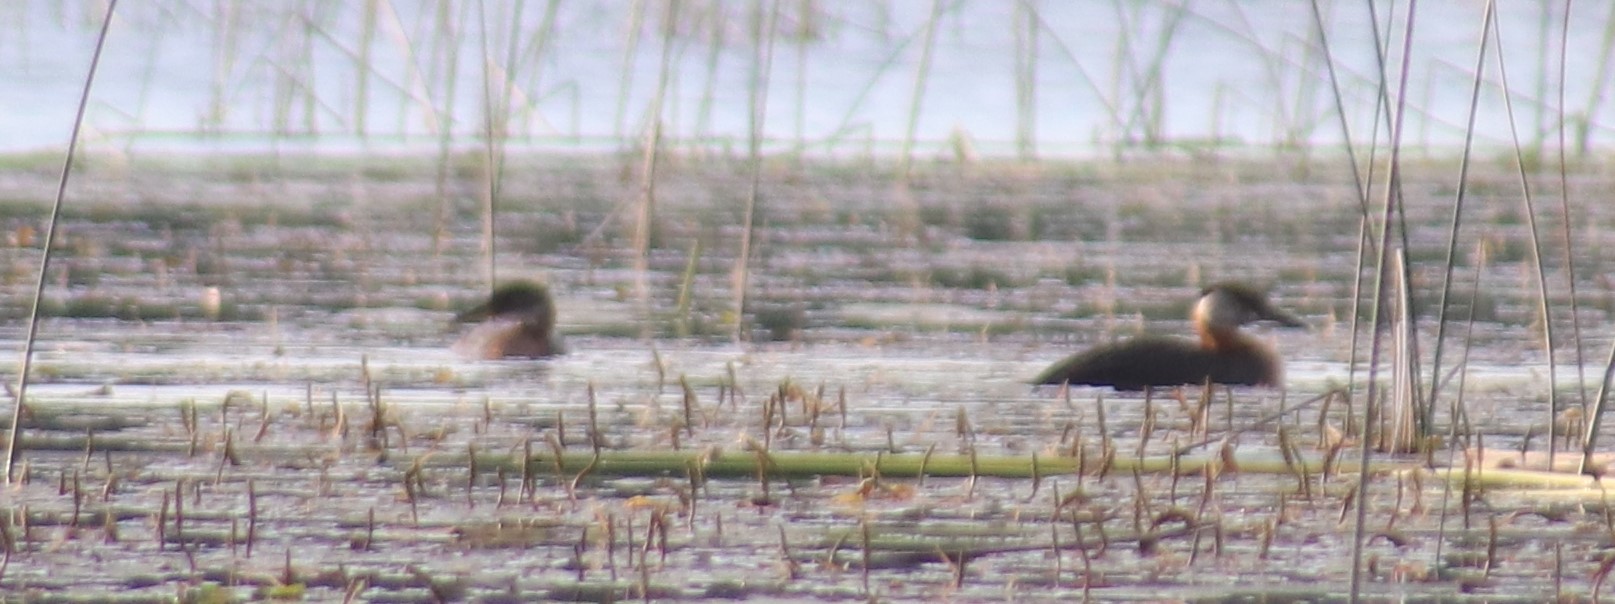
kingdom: Animalia
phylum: Chordata
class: Aves
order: Podicipediformes
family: Podicipedidae
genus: Podiceps
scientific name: Podiceps grisegena
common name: Red-necked grebe
